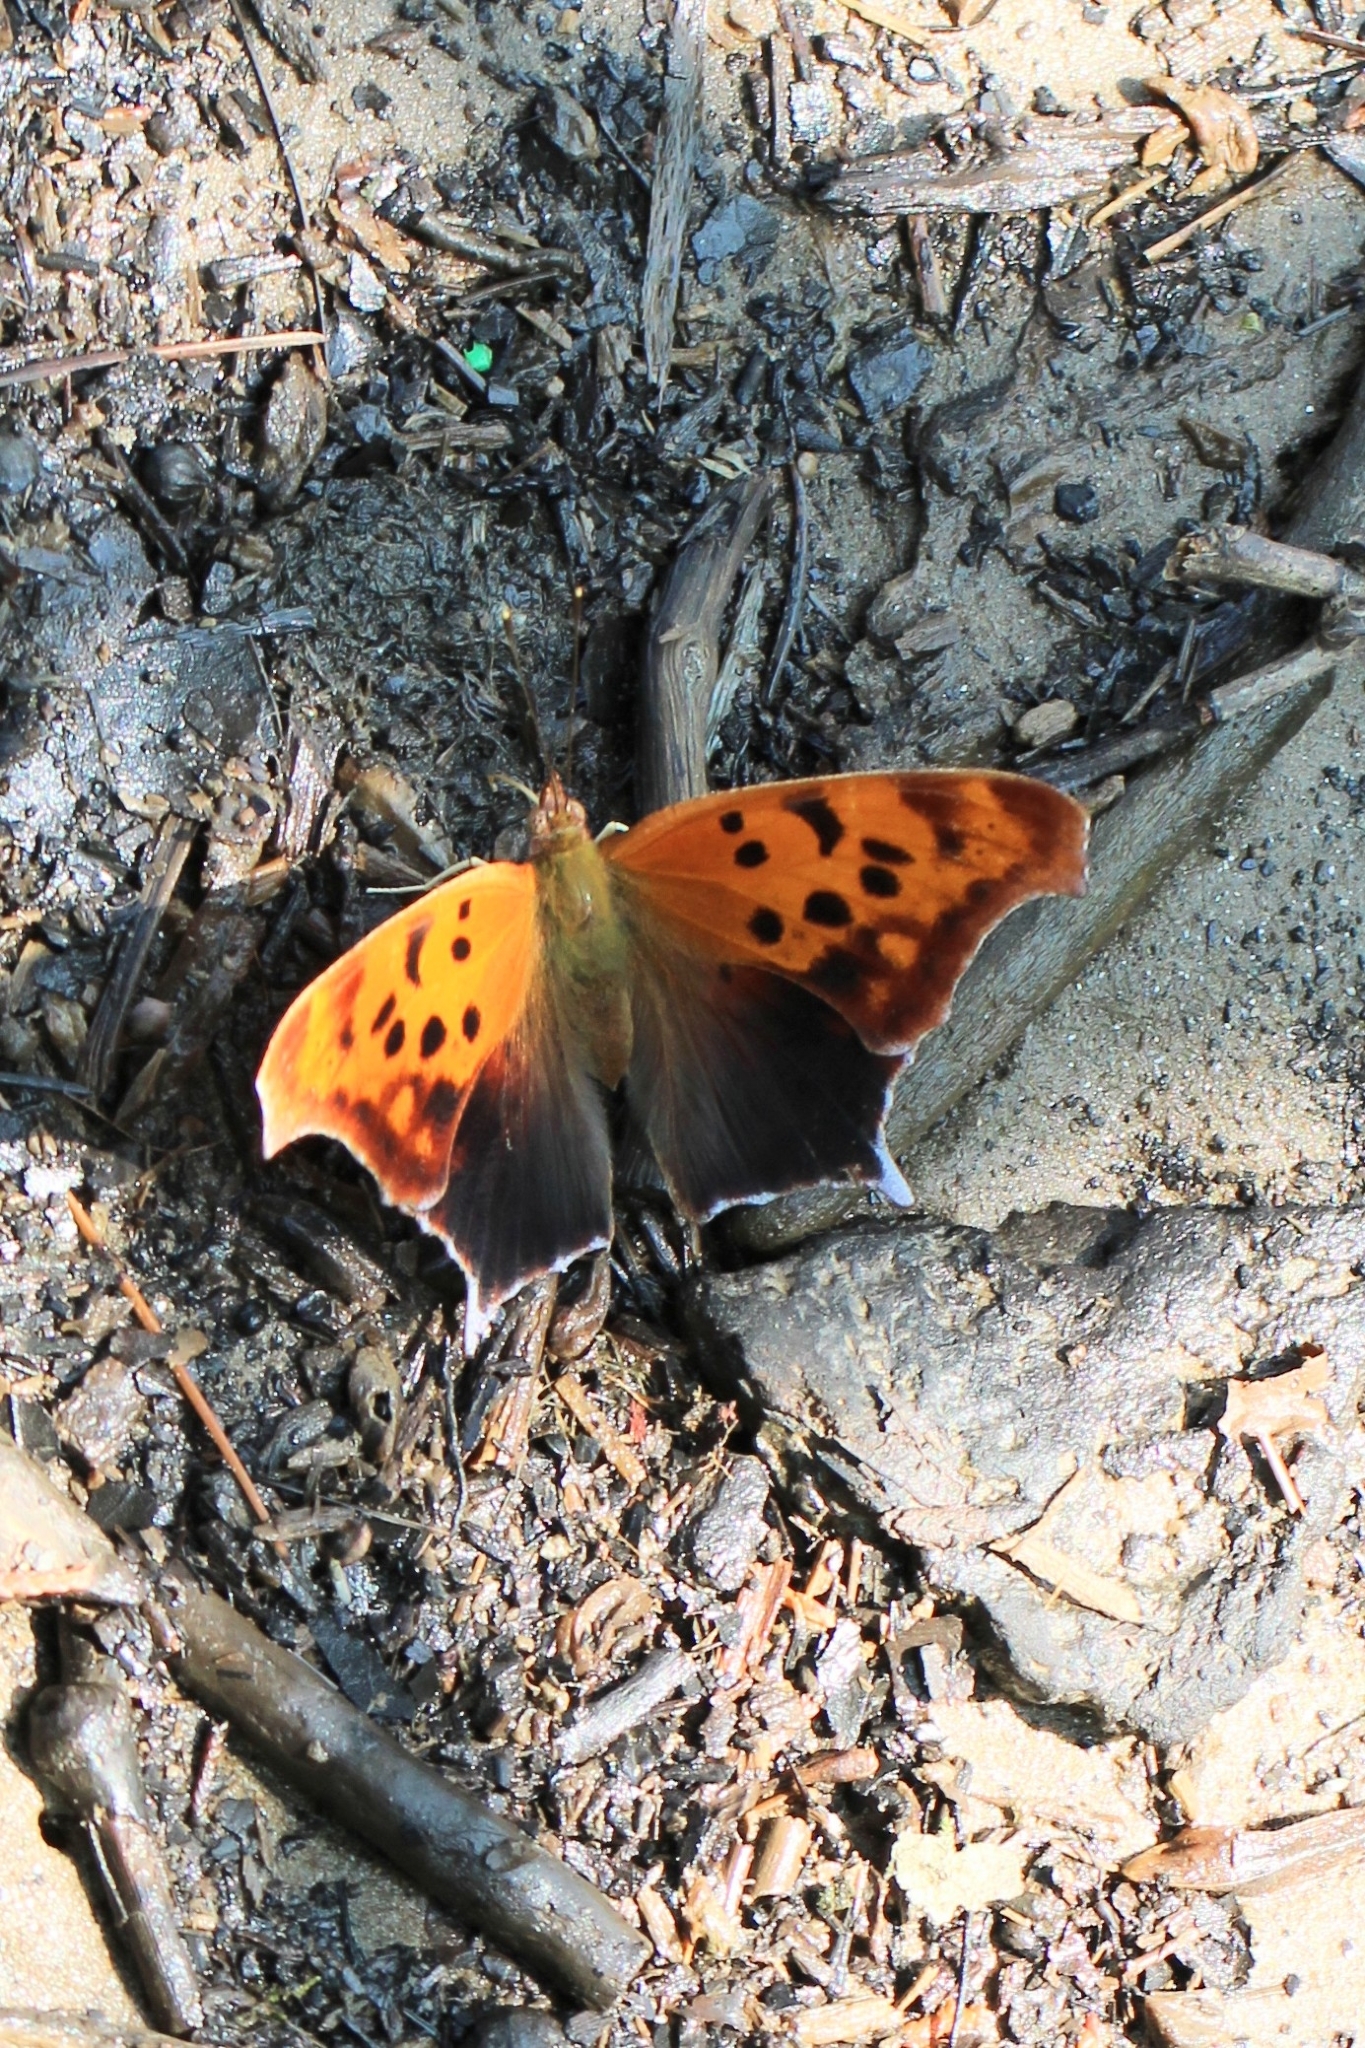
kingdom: Animalia
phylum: Arthropoda
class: Insecta
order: Lepidoptera
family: Nymphalidae
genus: Polygonia
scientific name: Polygonia interrogationis
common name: Question mark
